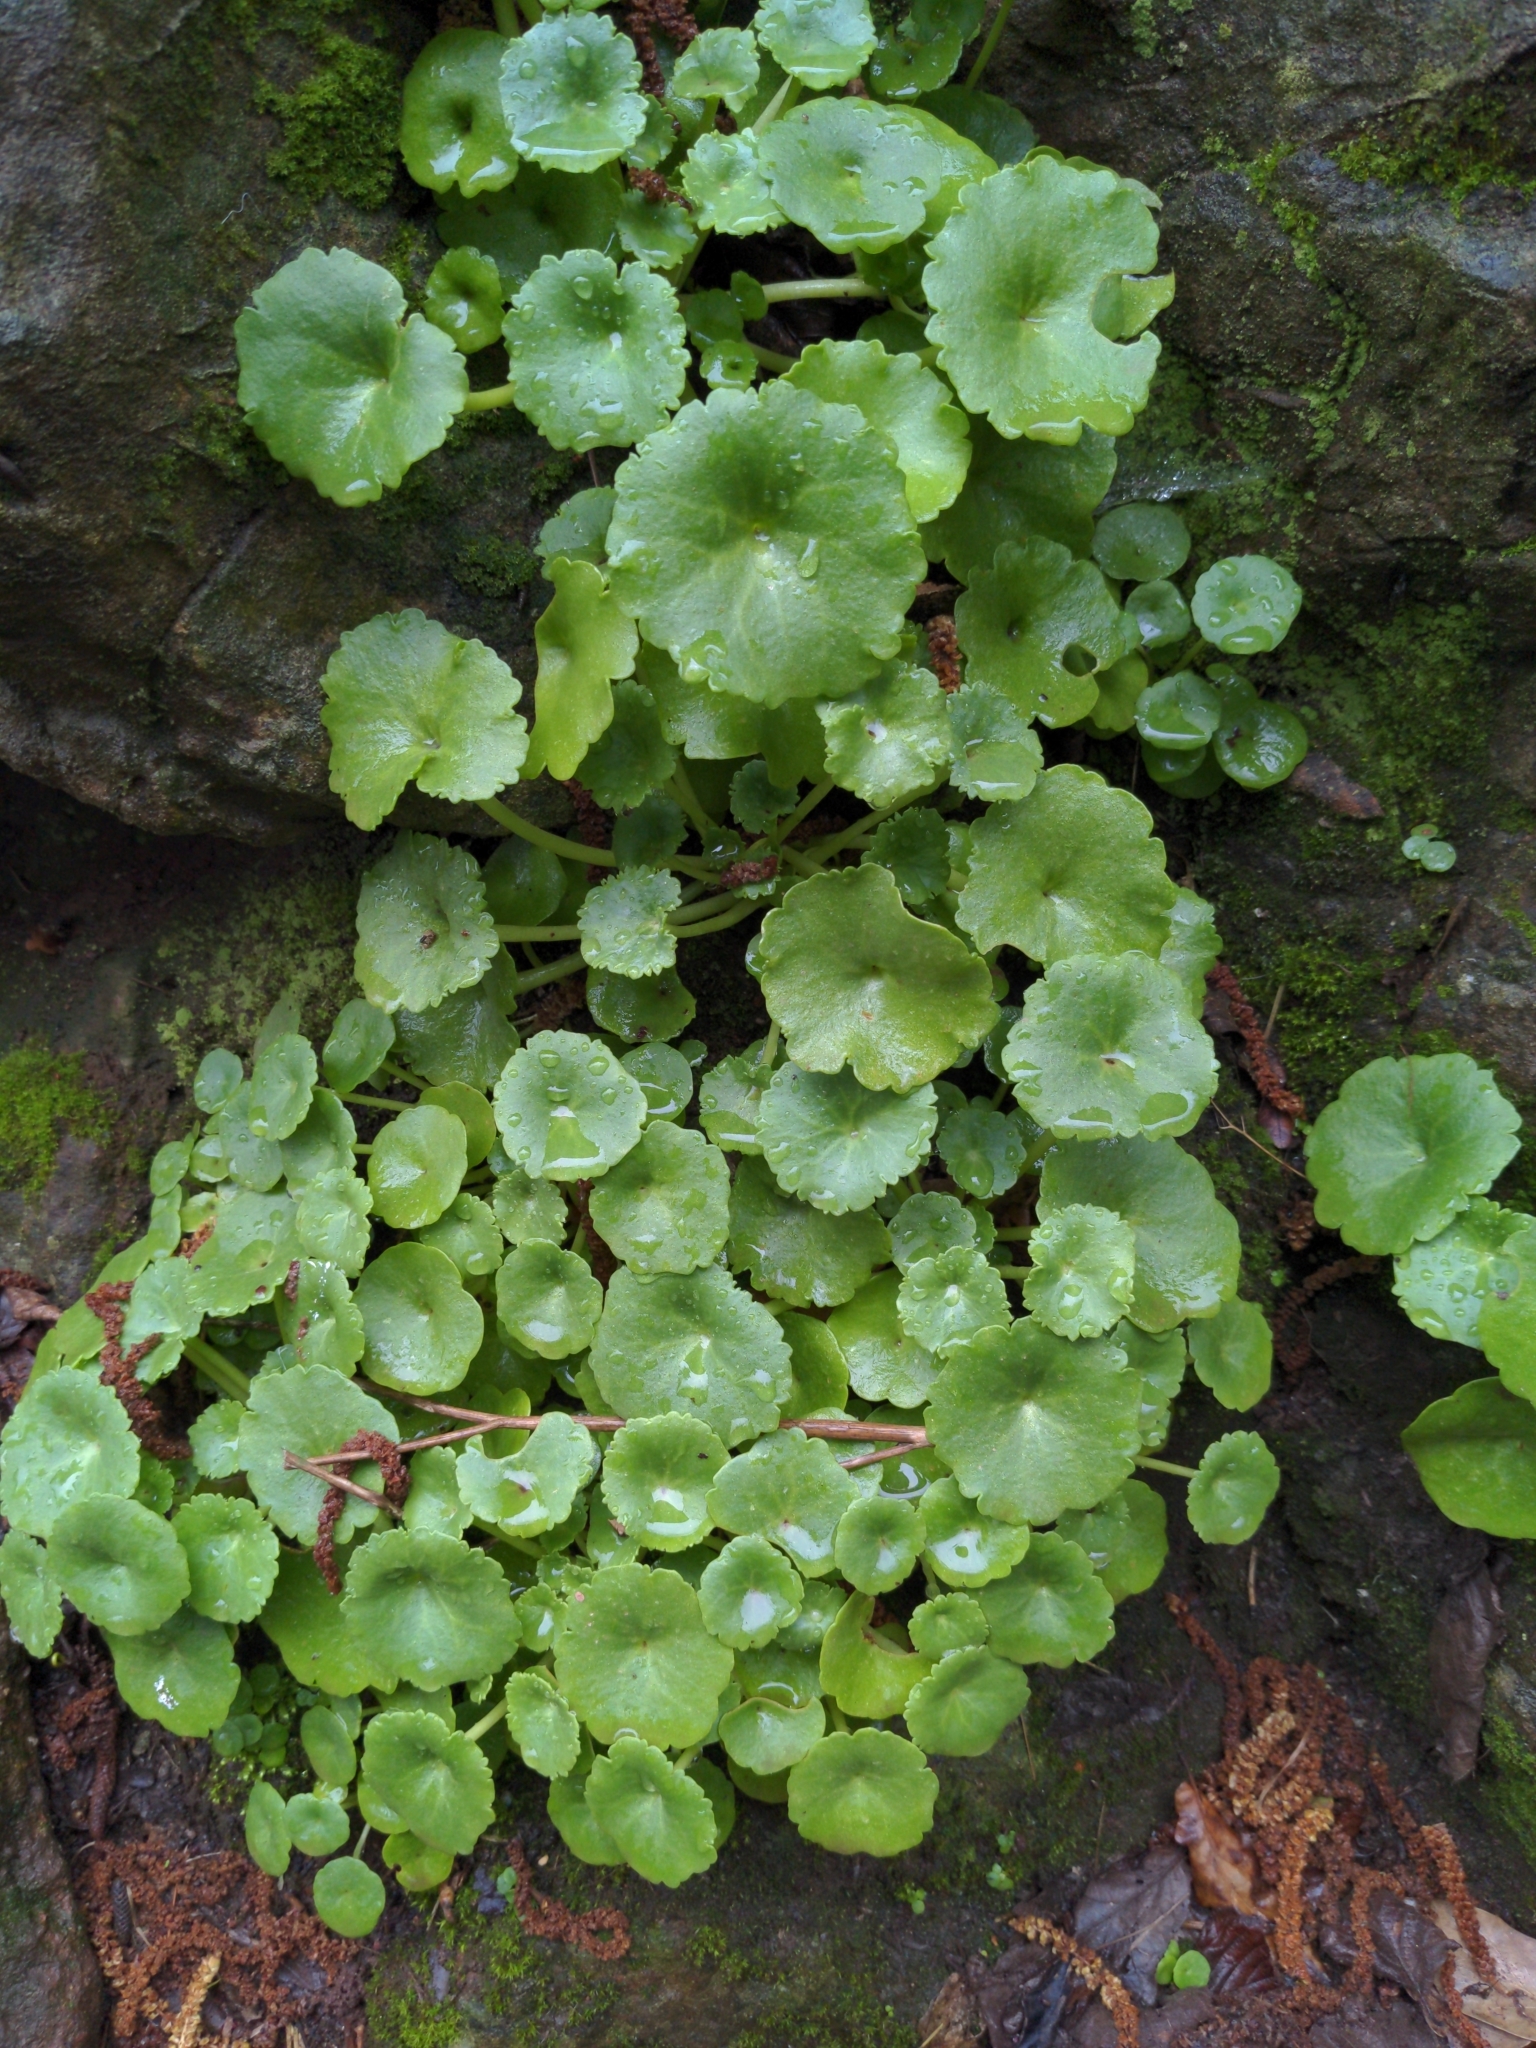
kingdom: Plantae
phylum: Tracheophyta
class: Magnoliopsida
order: Saxifragales
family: Crassulaceae
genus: Umbilicus
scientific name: Umbilicus rupestris
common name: Navelwort
